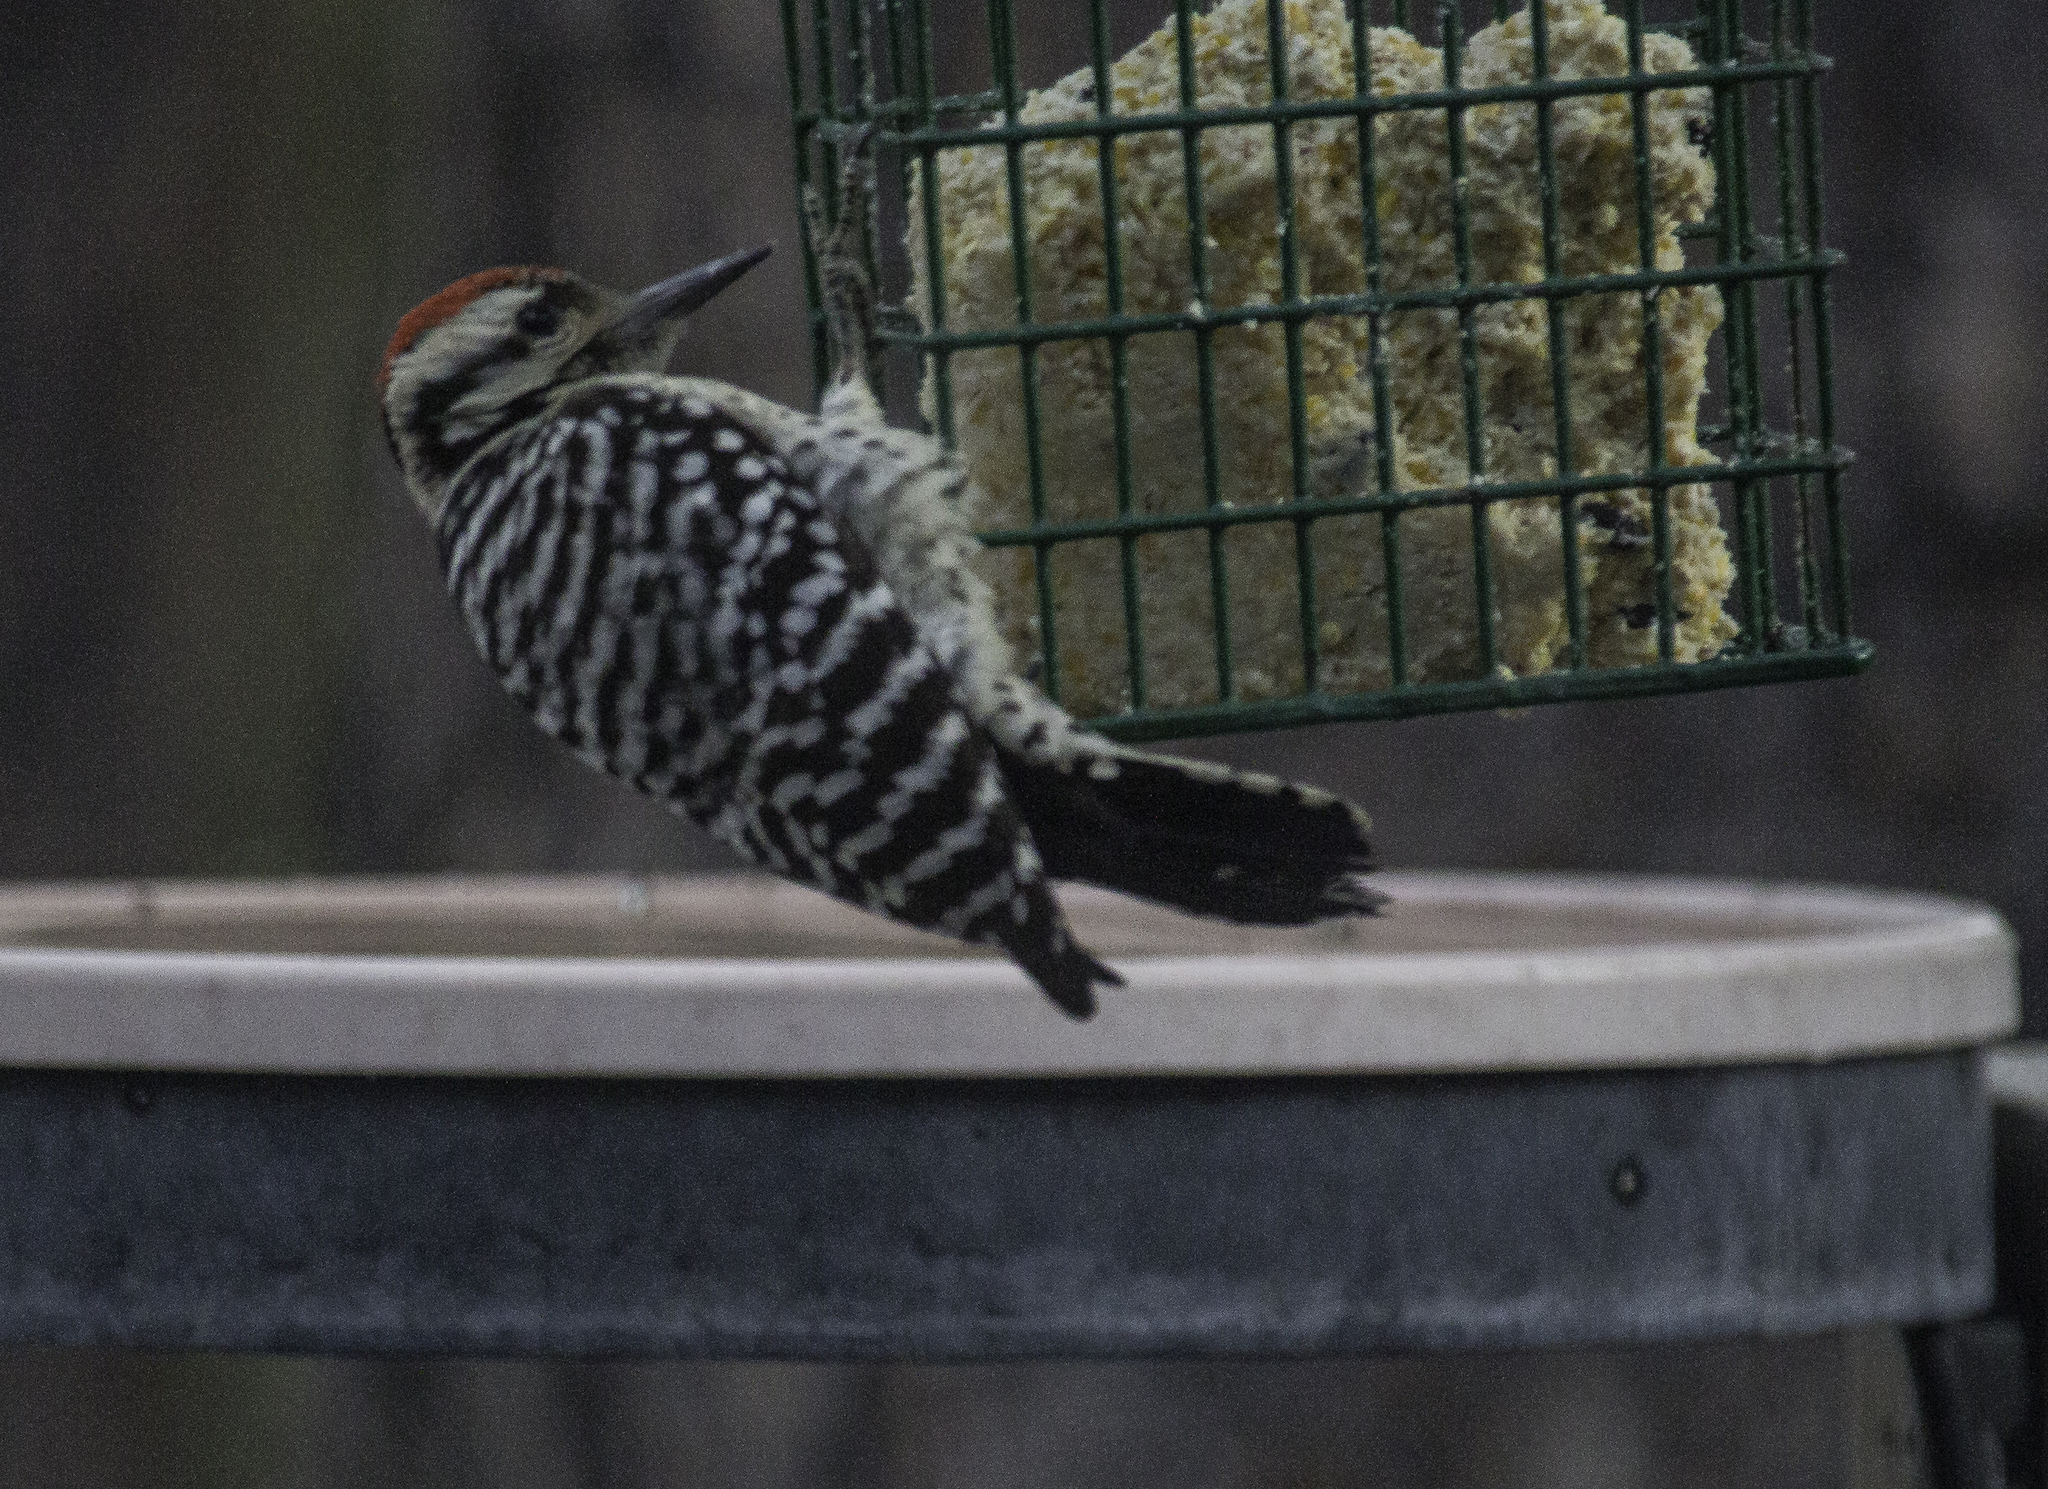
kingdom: Animalia
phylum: Chordata
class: Aves
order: Piciformes
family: Picidae
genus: Dryobates
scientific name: Dryobates scalaris
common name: Ladder-backed woodpecker
